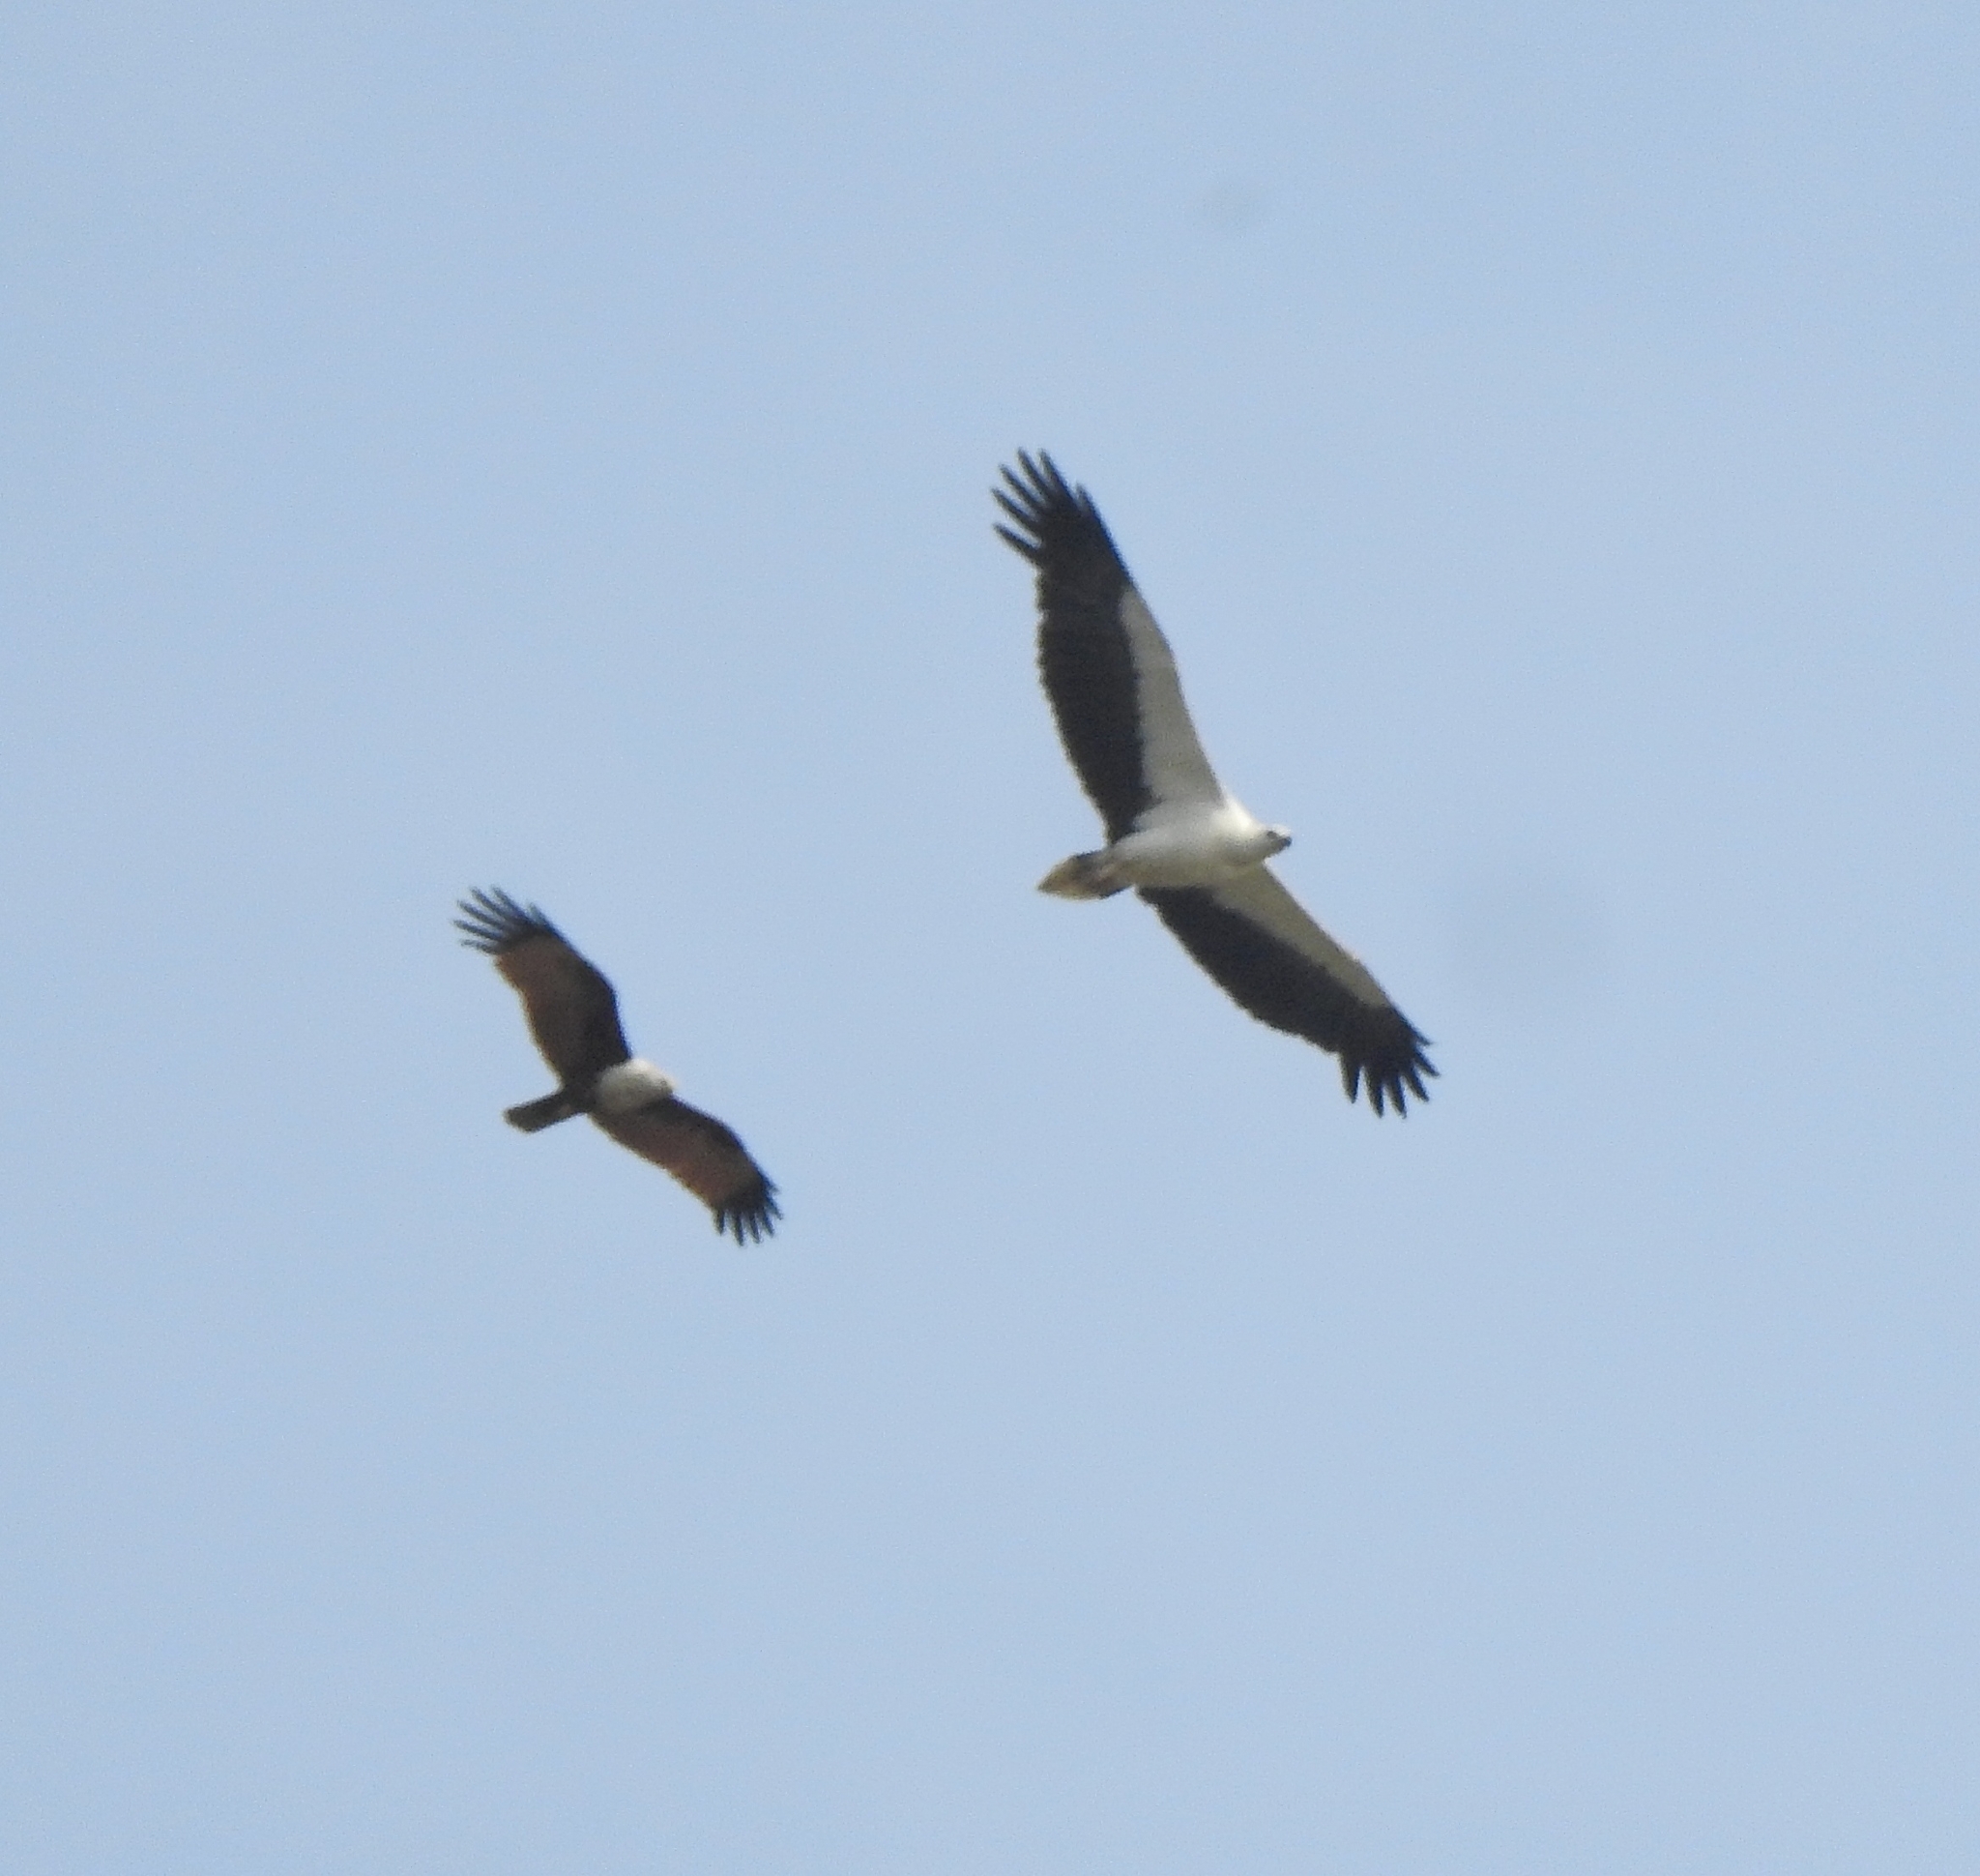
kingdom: Animalia
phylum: Chordata
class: Aves
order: Accipitriformes
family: Accipitridae
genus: Haliastur
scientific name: Haliastur indus
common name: Brahminy kite
